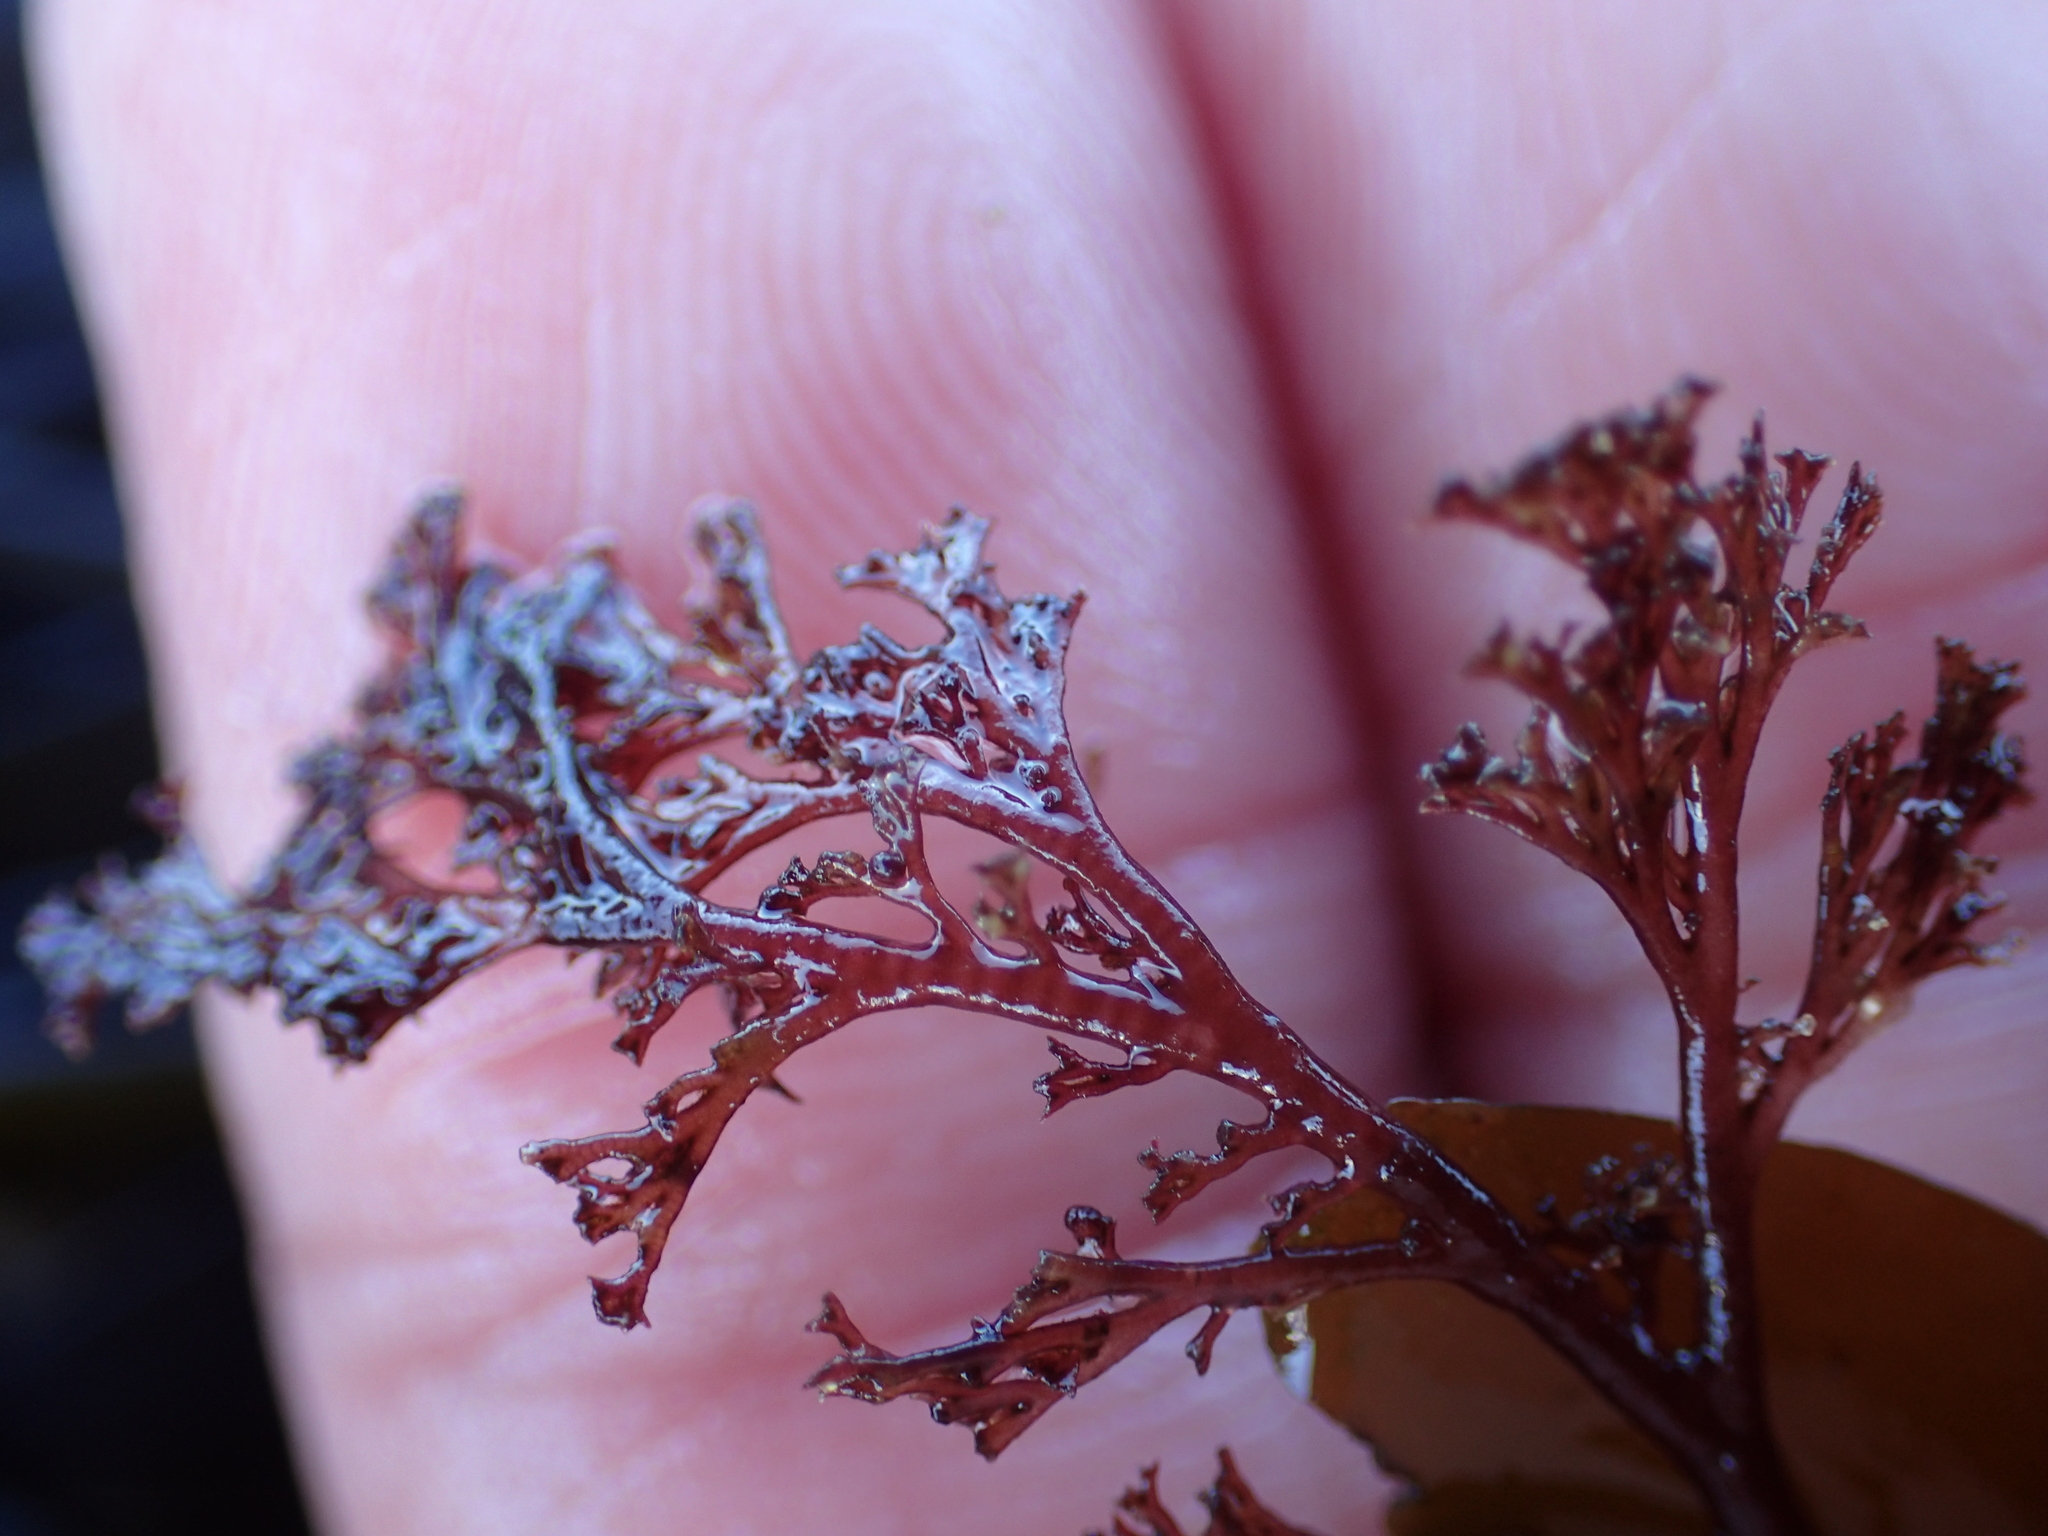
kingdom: Plantae
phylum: Rhodophyta
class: Florideophyceae
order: Ceramiales
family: Ceramiaceae
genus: Microcladia
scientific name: Microcladia coulteri
